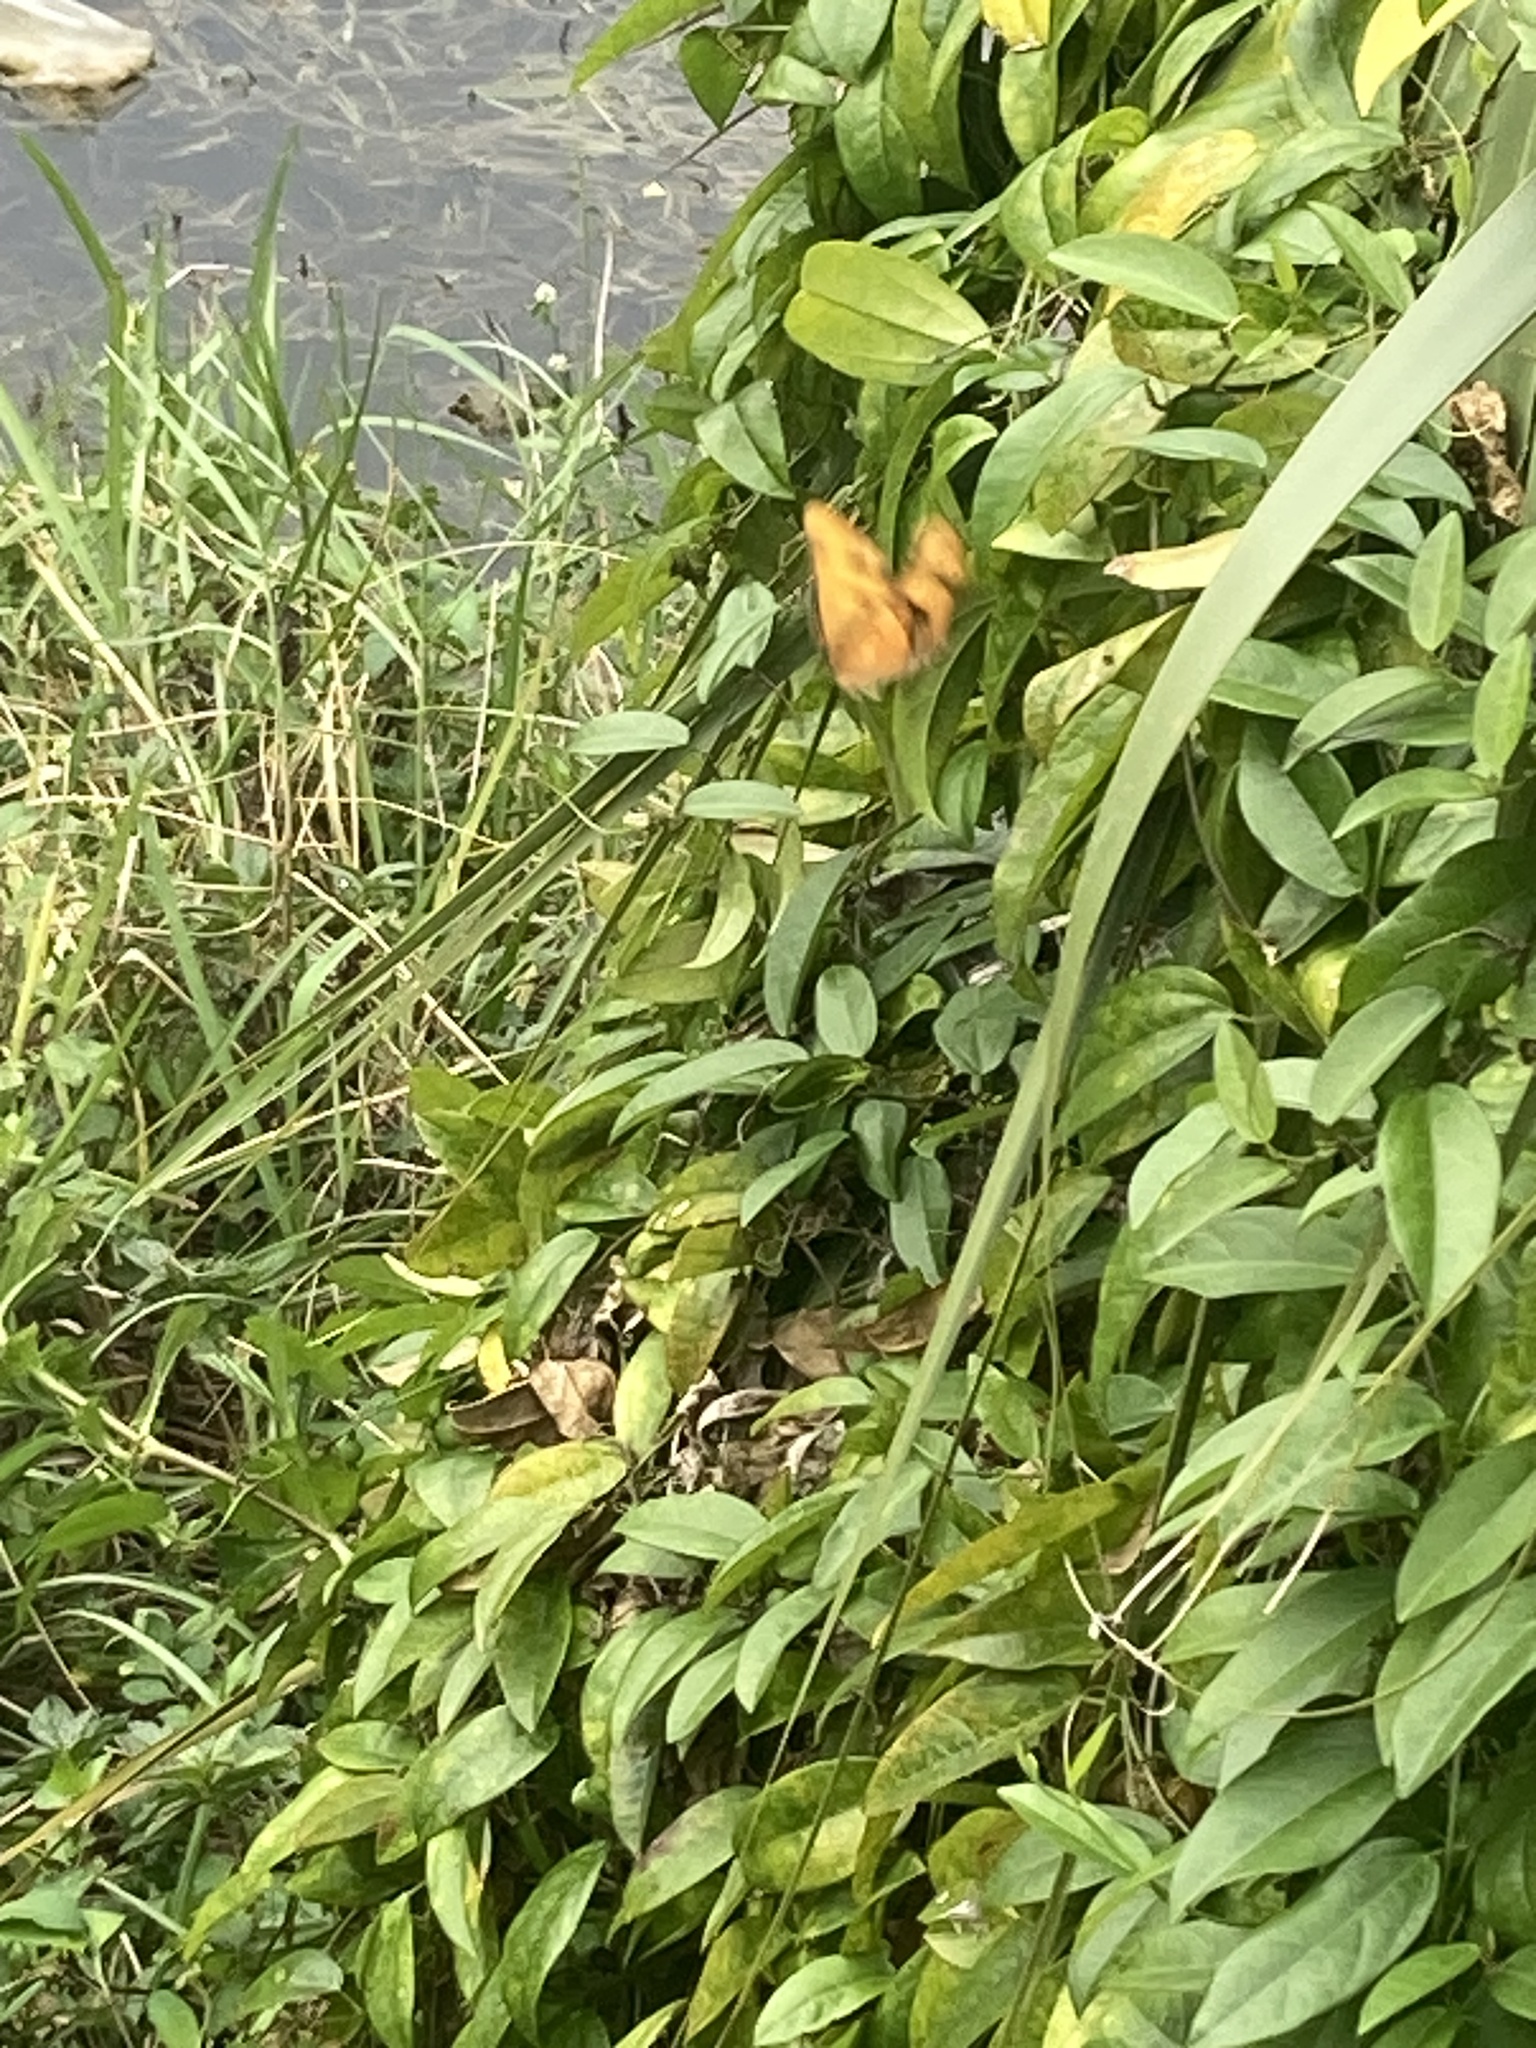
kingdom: Animalia
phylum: Arthropoda
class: Insecta
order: Lepidoptera
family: Nymphalidae
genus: Dryas
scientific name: Dryas iulia
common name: Flambeau
